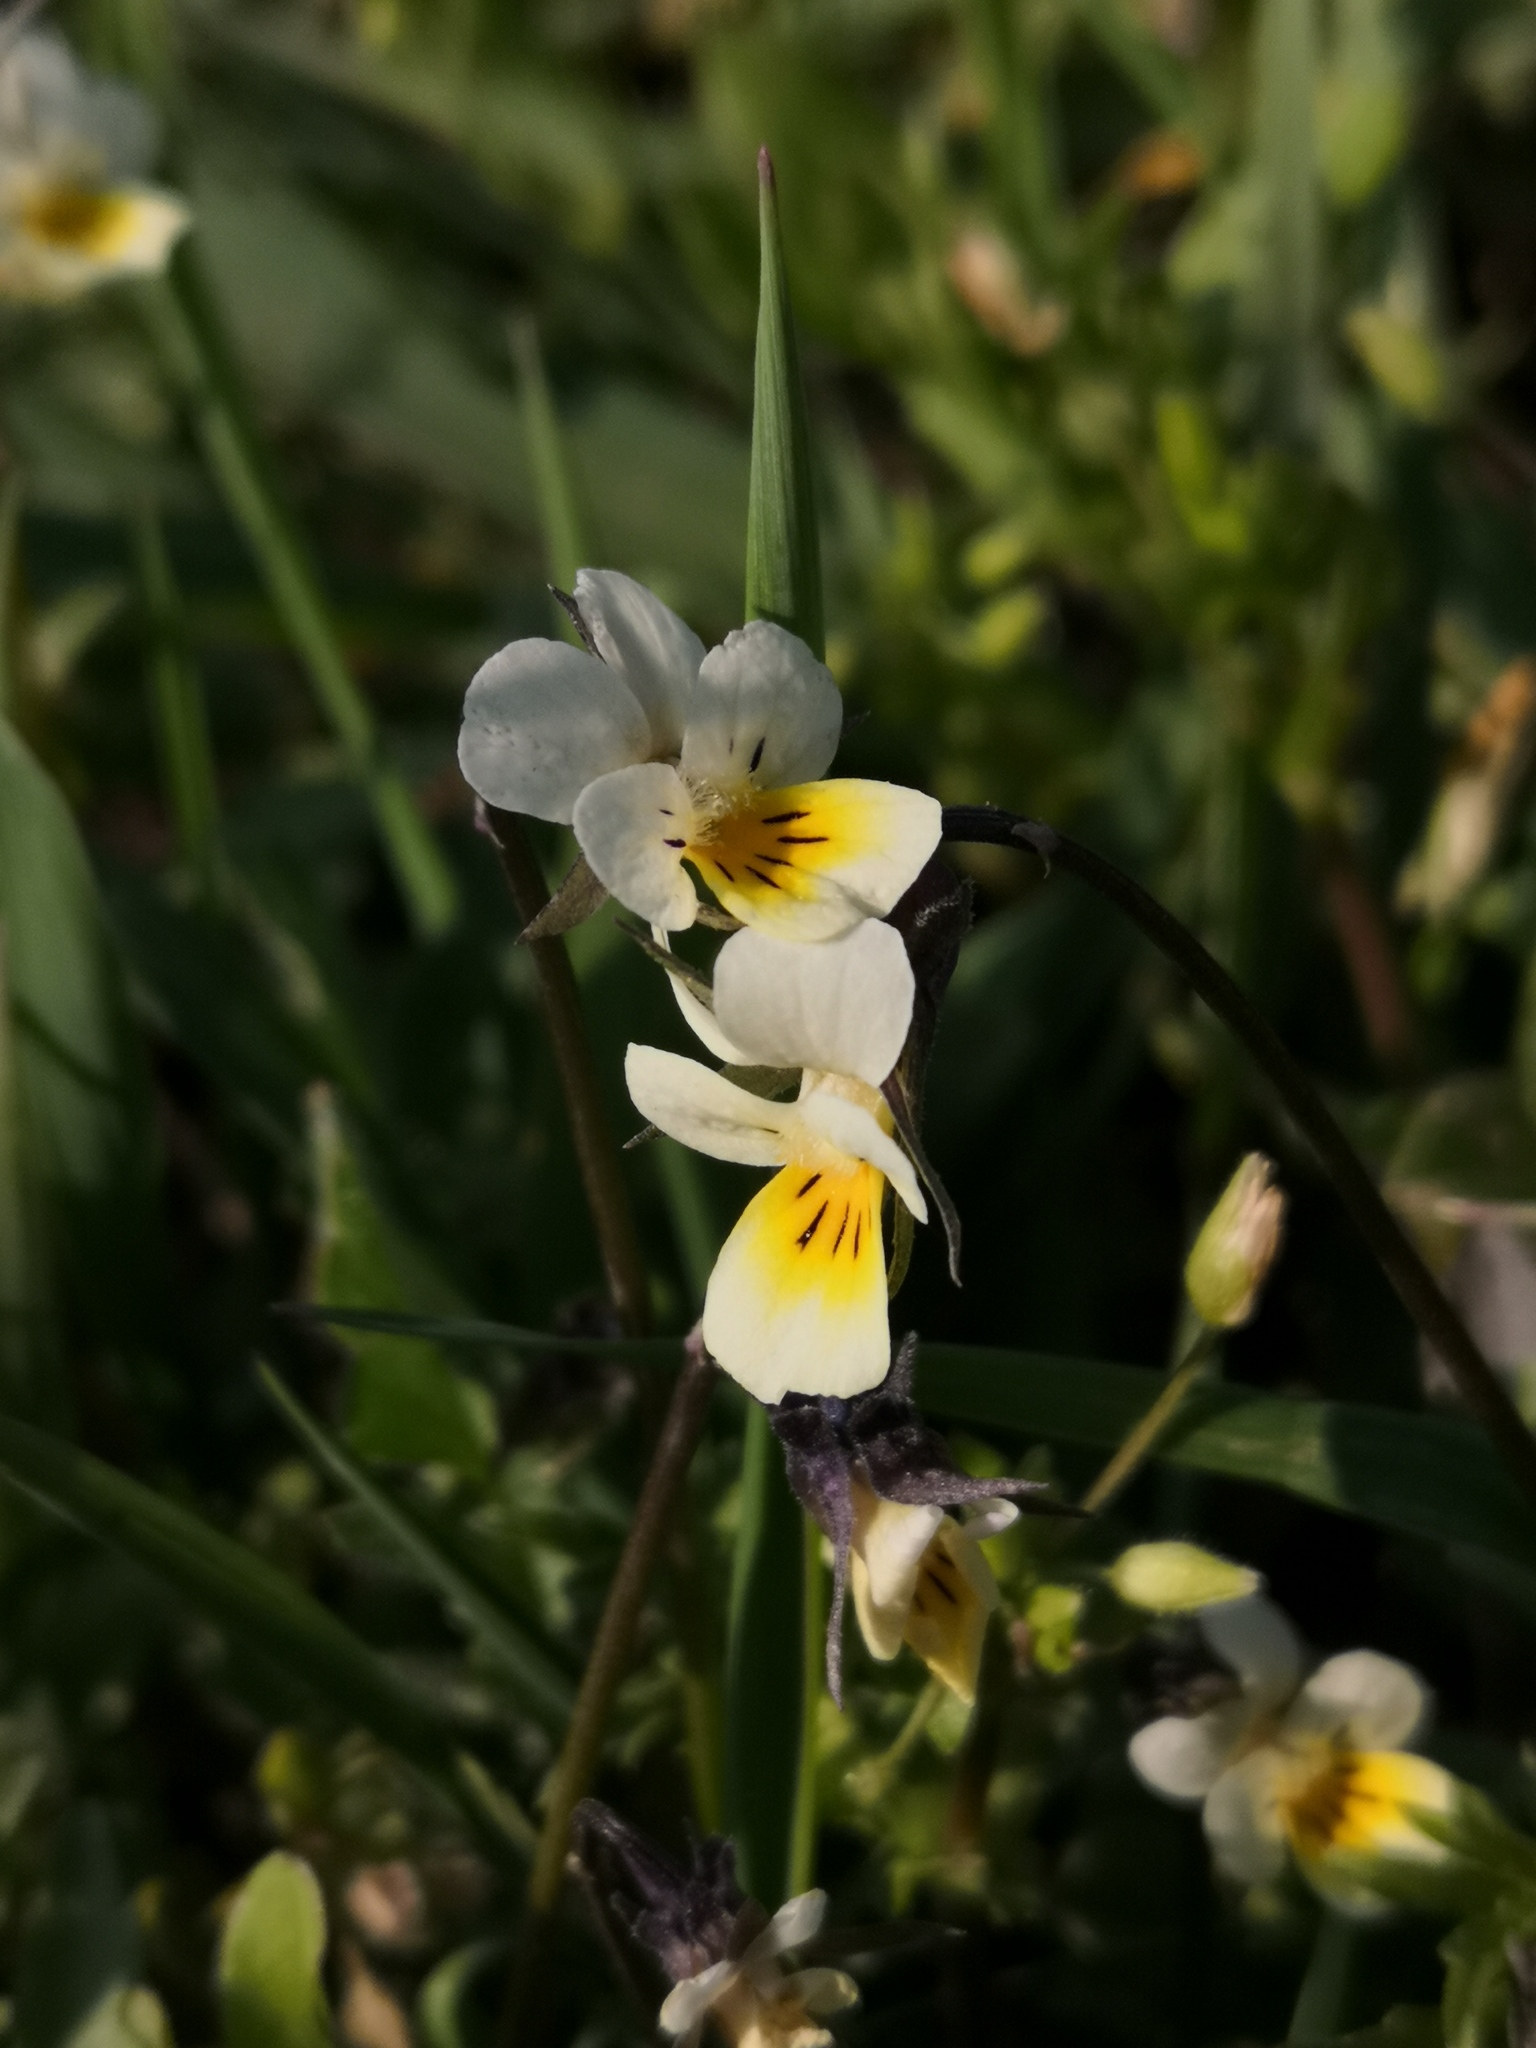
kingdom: Plantae
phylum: Tracheophyta
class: Magnoliopsida
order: Malpighiales
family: Violaceae
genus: Viola
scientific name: Viola arvensis
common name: Field pansy
